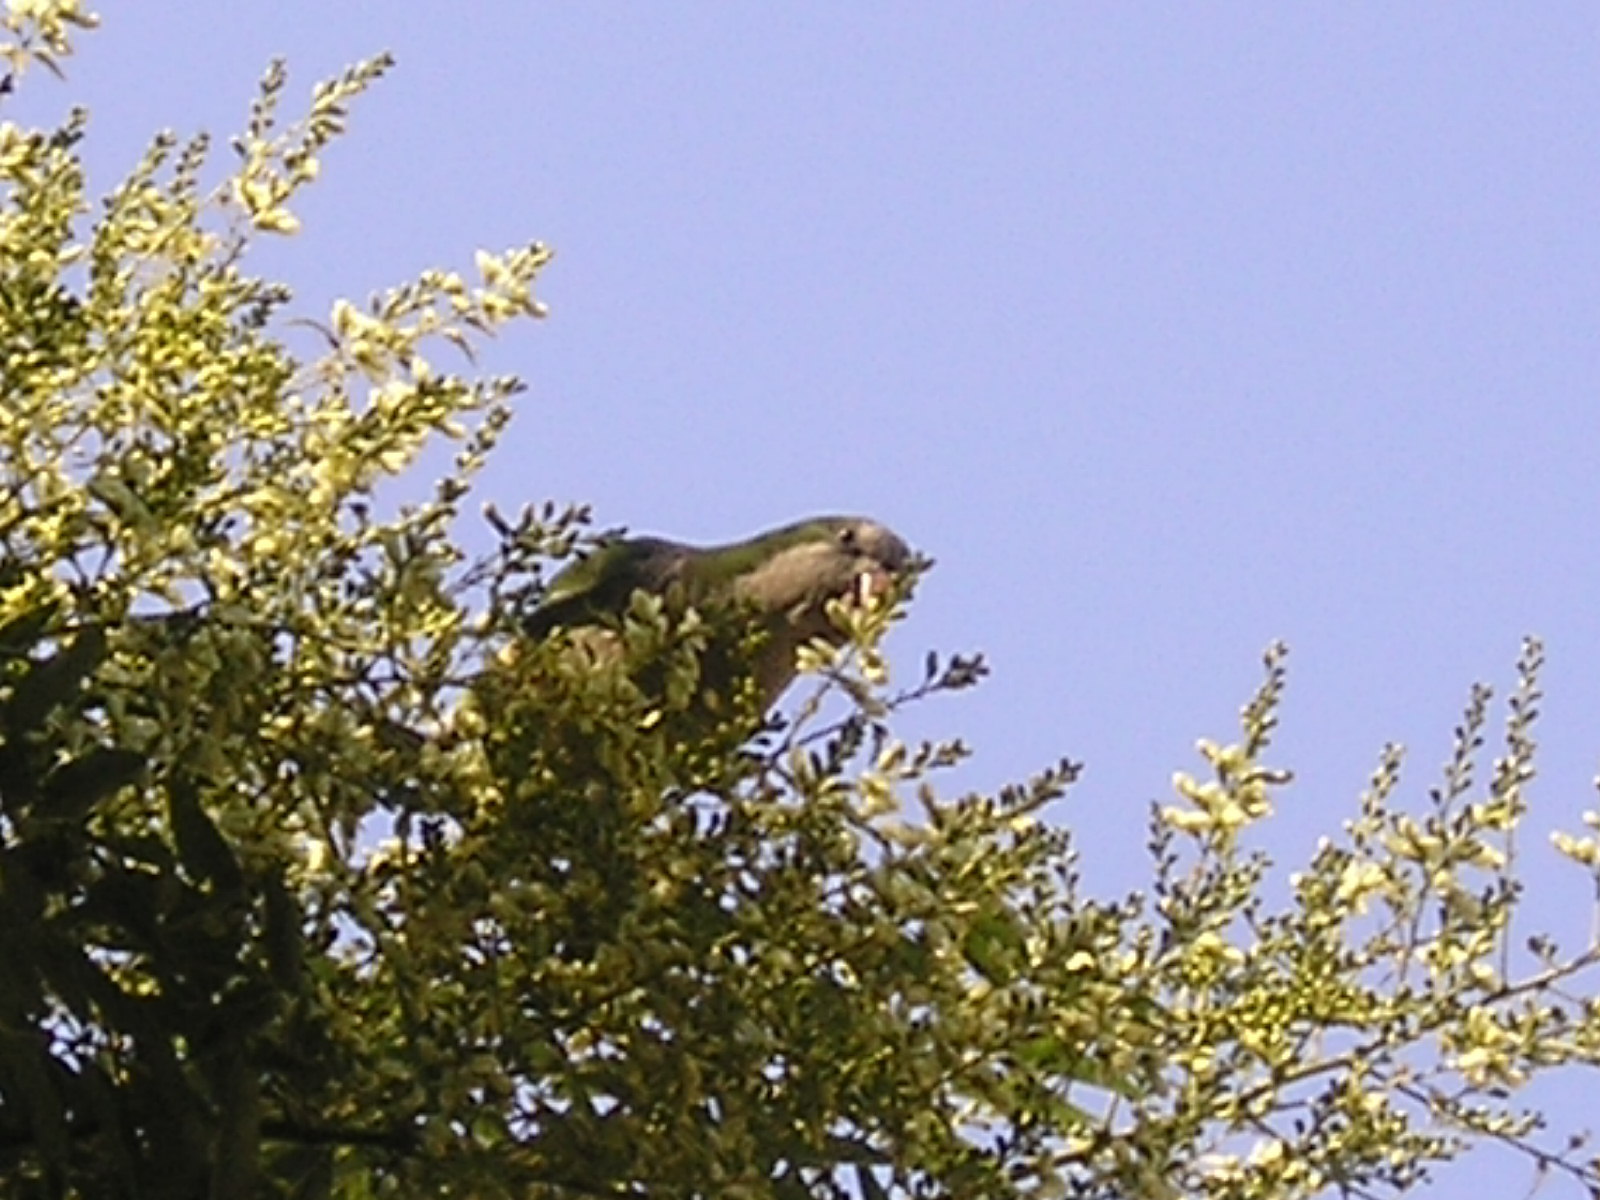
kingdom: Animalia
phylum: Chordata
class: Aves
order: Psittaciformes
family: Psittacidae
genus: Myiopsitta
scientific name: Myiopsitta monachus
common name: Monk parakeet
